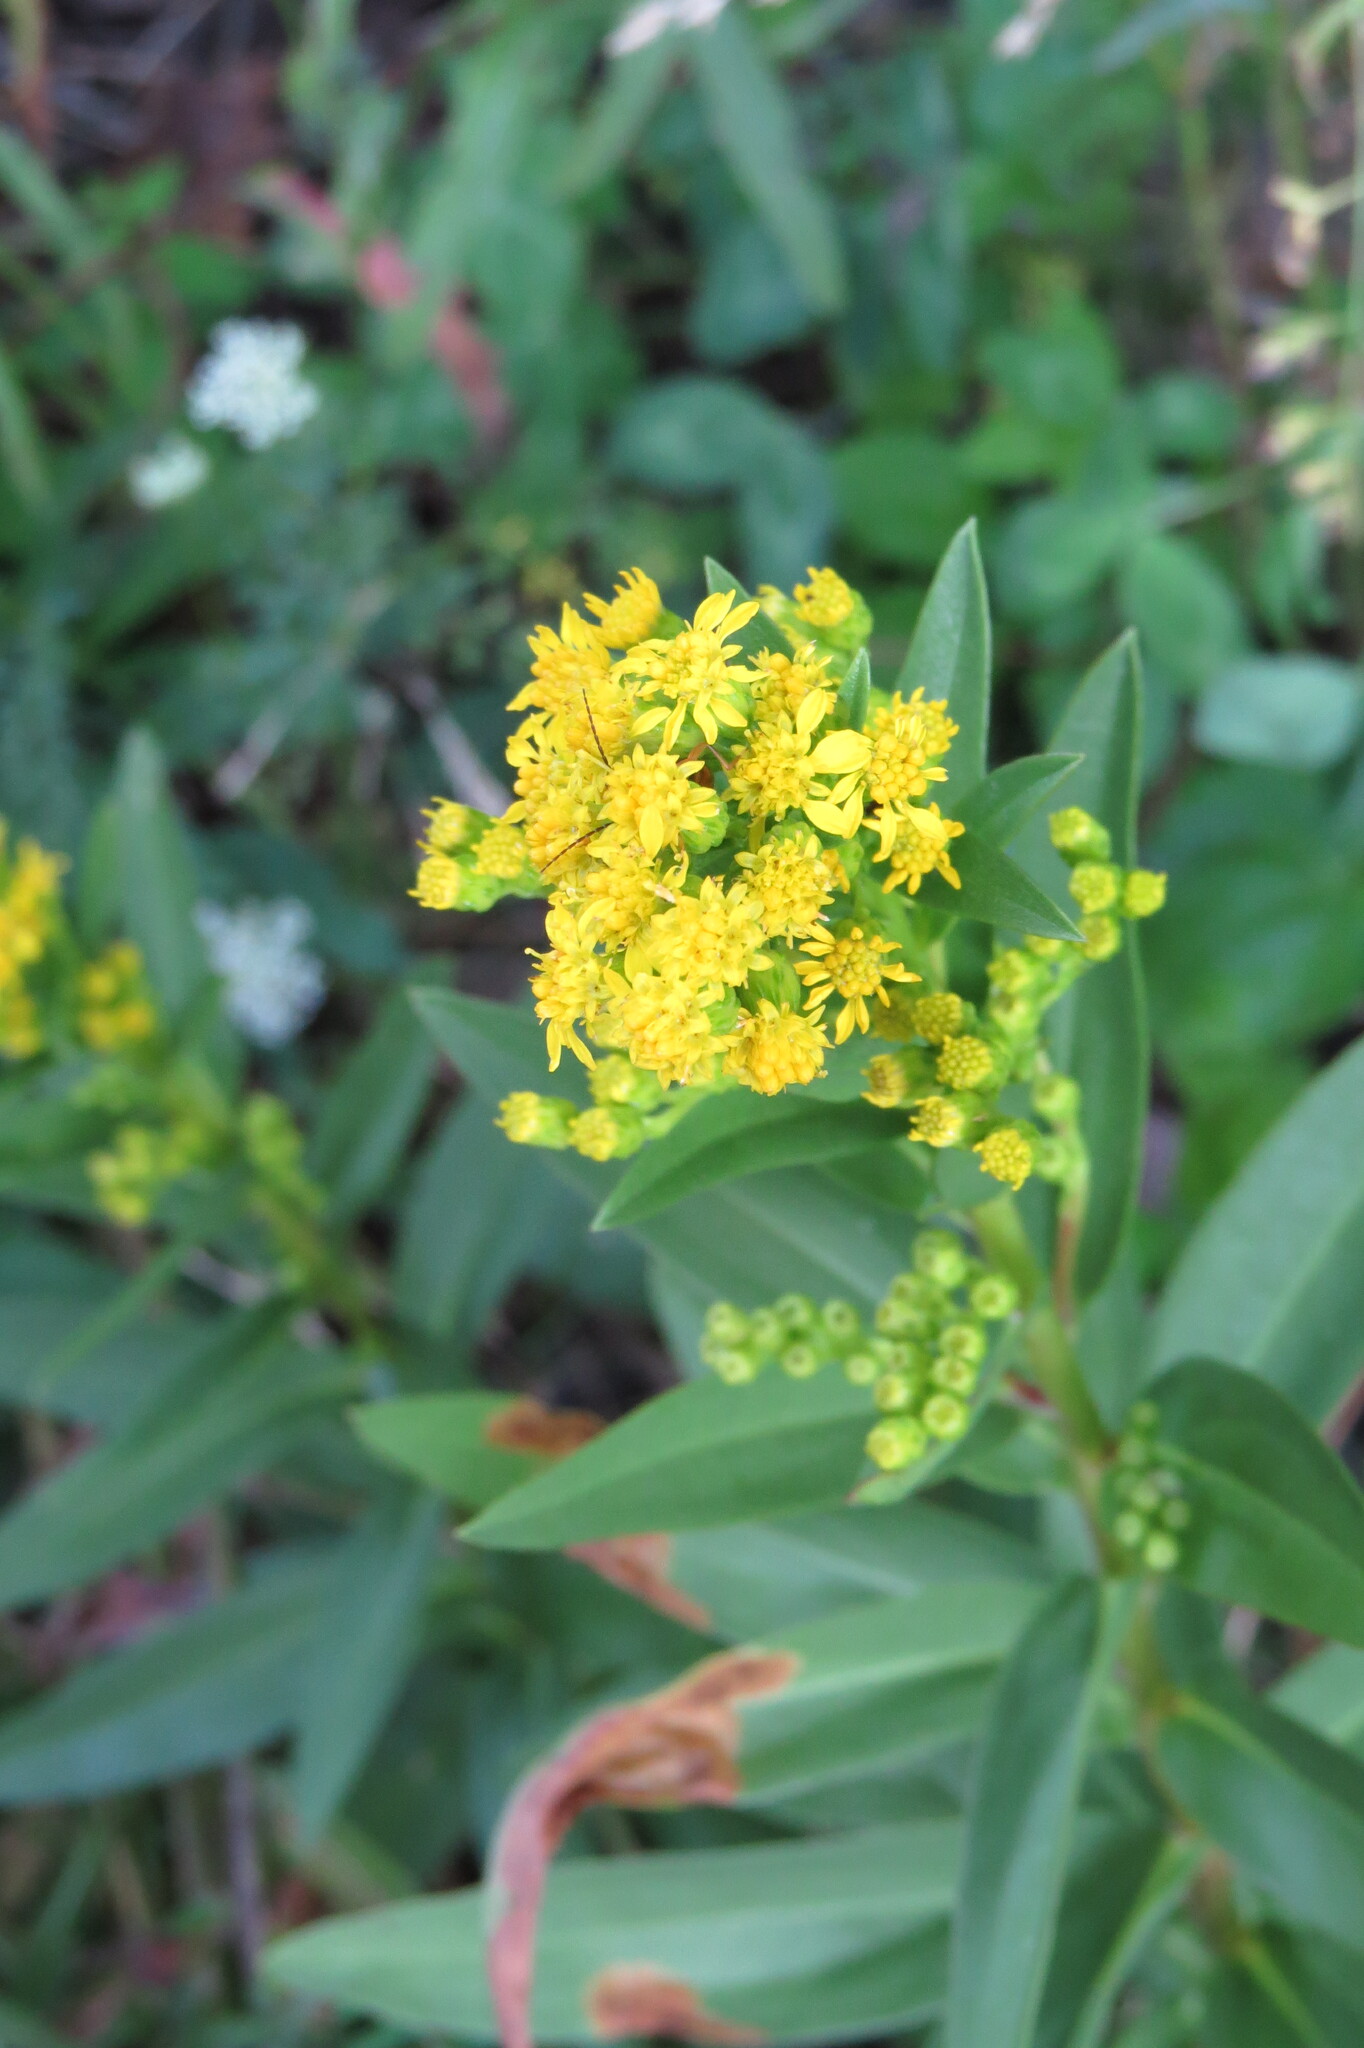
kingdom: Plantae
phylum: Tracheophyta
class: Magnoliopsida
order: Asterales
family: Asteraceae
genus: Solidago
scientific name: Solidago sempervirens
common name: Salt-marsh goldenrod
